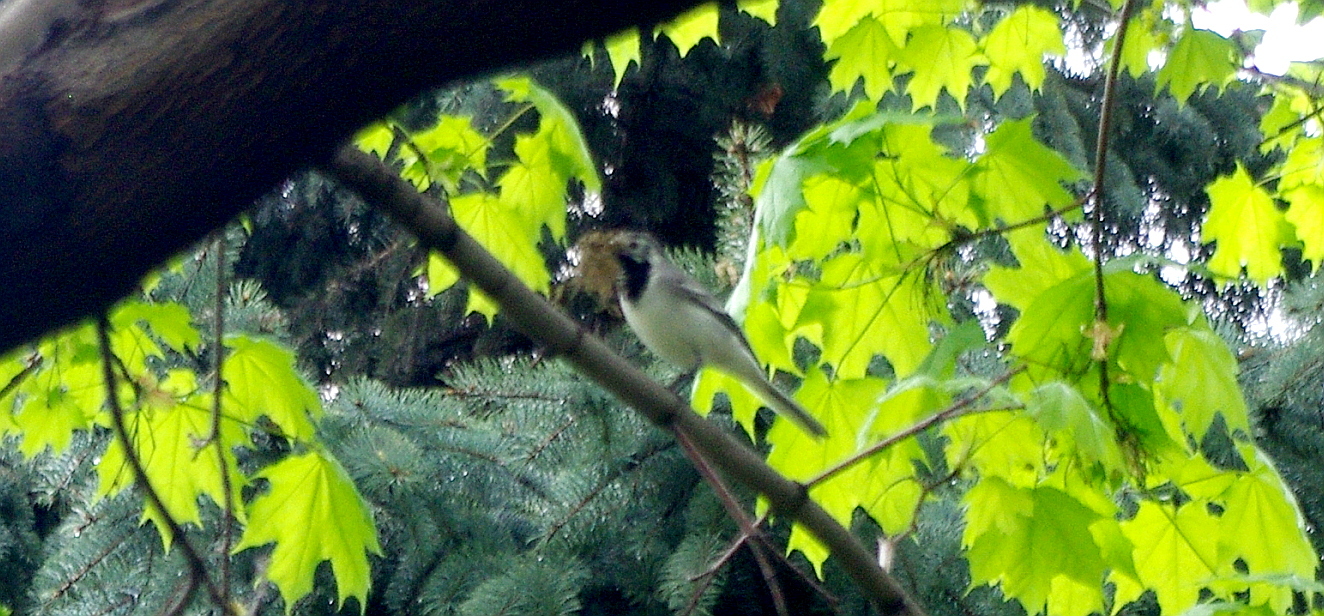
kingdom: Animalia
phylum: Chordata
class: Aves
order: Passeriformes
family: Motacillidae
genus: Motacilla
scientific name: Motacilla alba
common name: White wagtail
